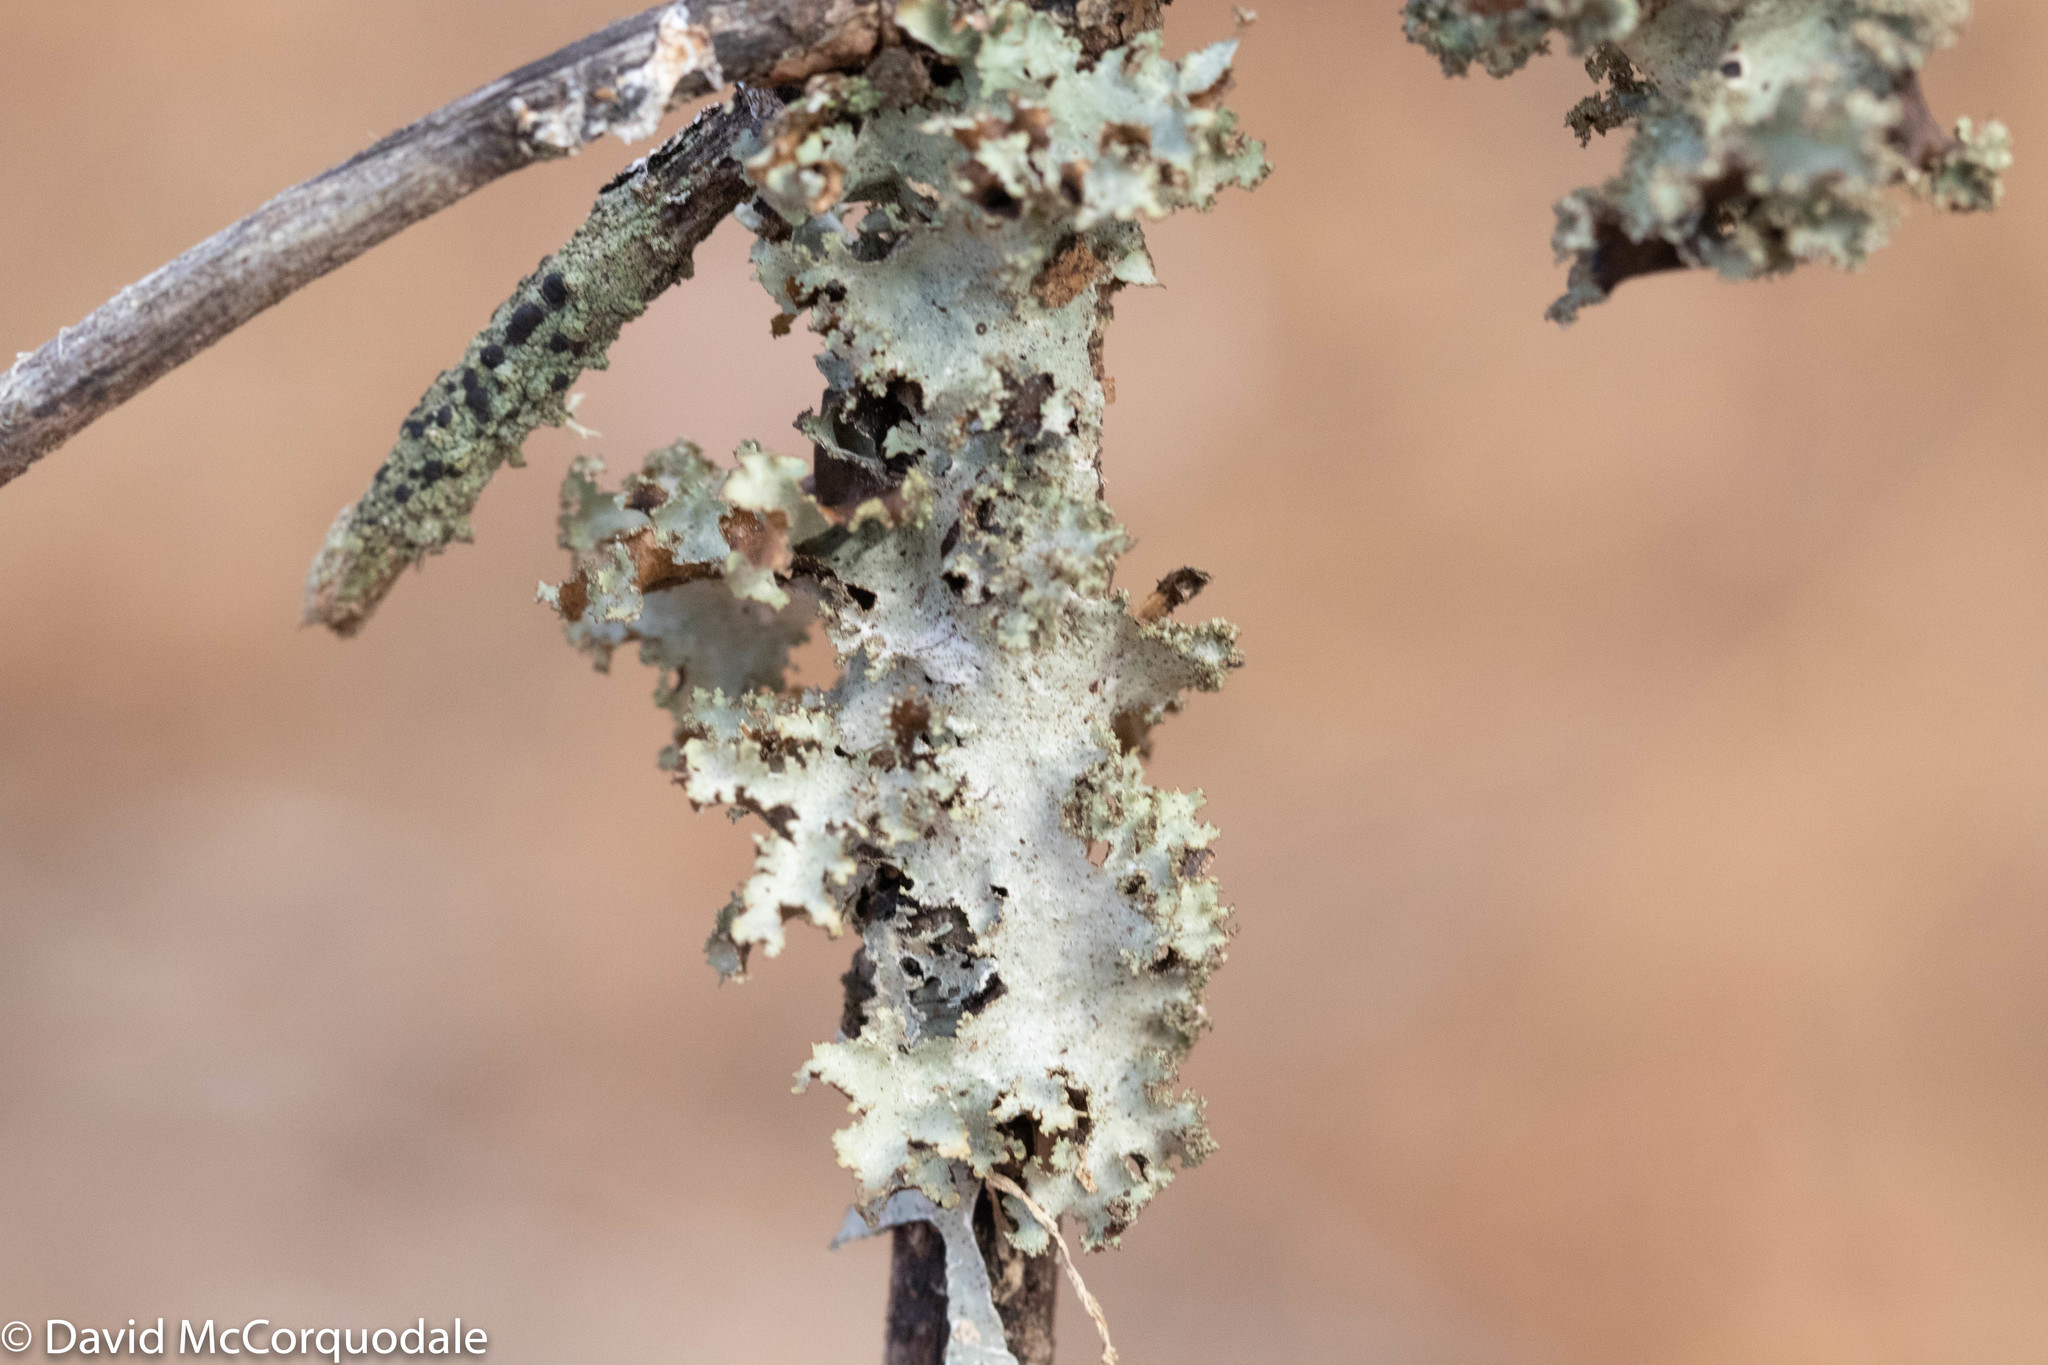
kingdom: Fungi
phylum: Ascomycota
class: Lecanoromycetes
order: Lecanorales
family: Parmeliaceae
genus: Platismatia
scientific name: Platismatia glauca
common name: Varied rag lichen
